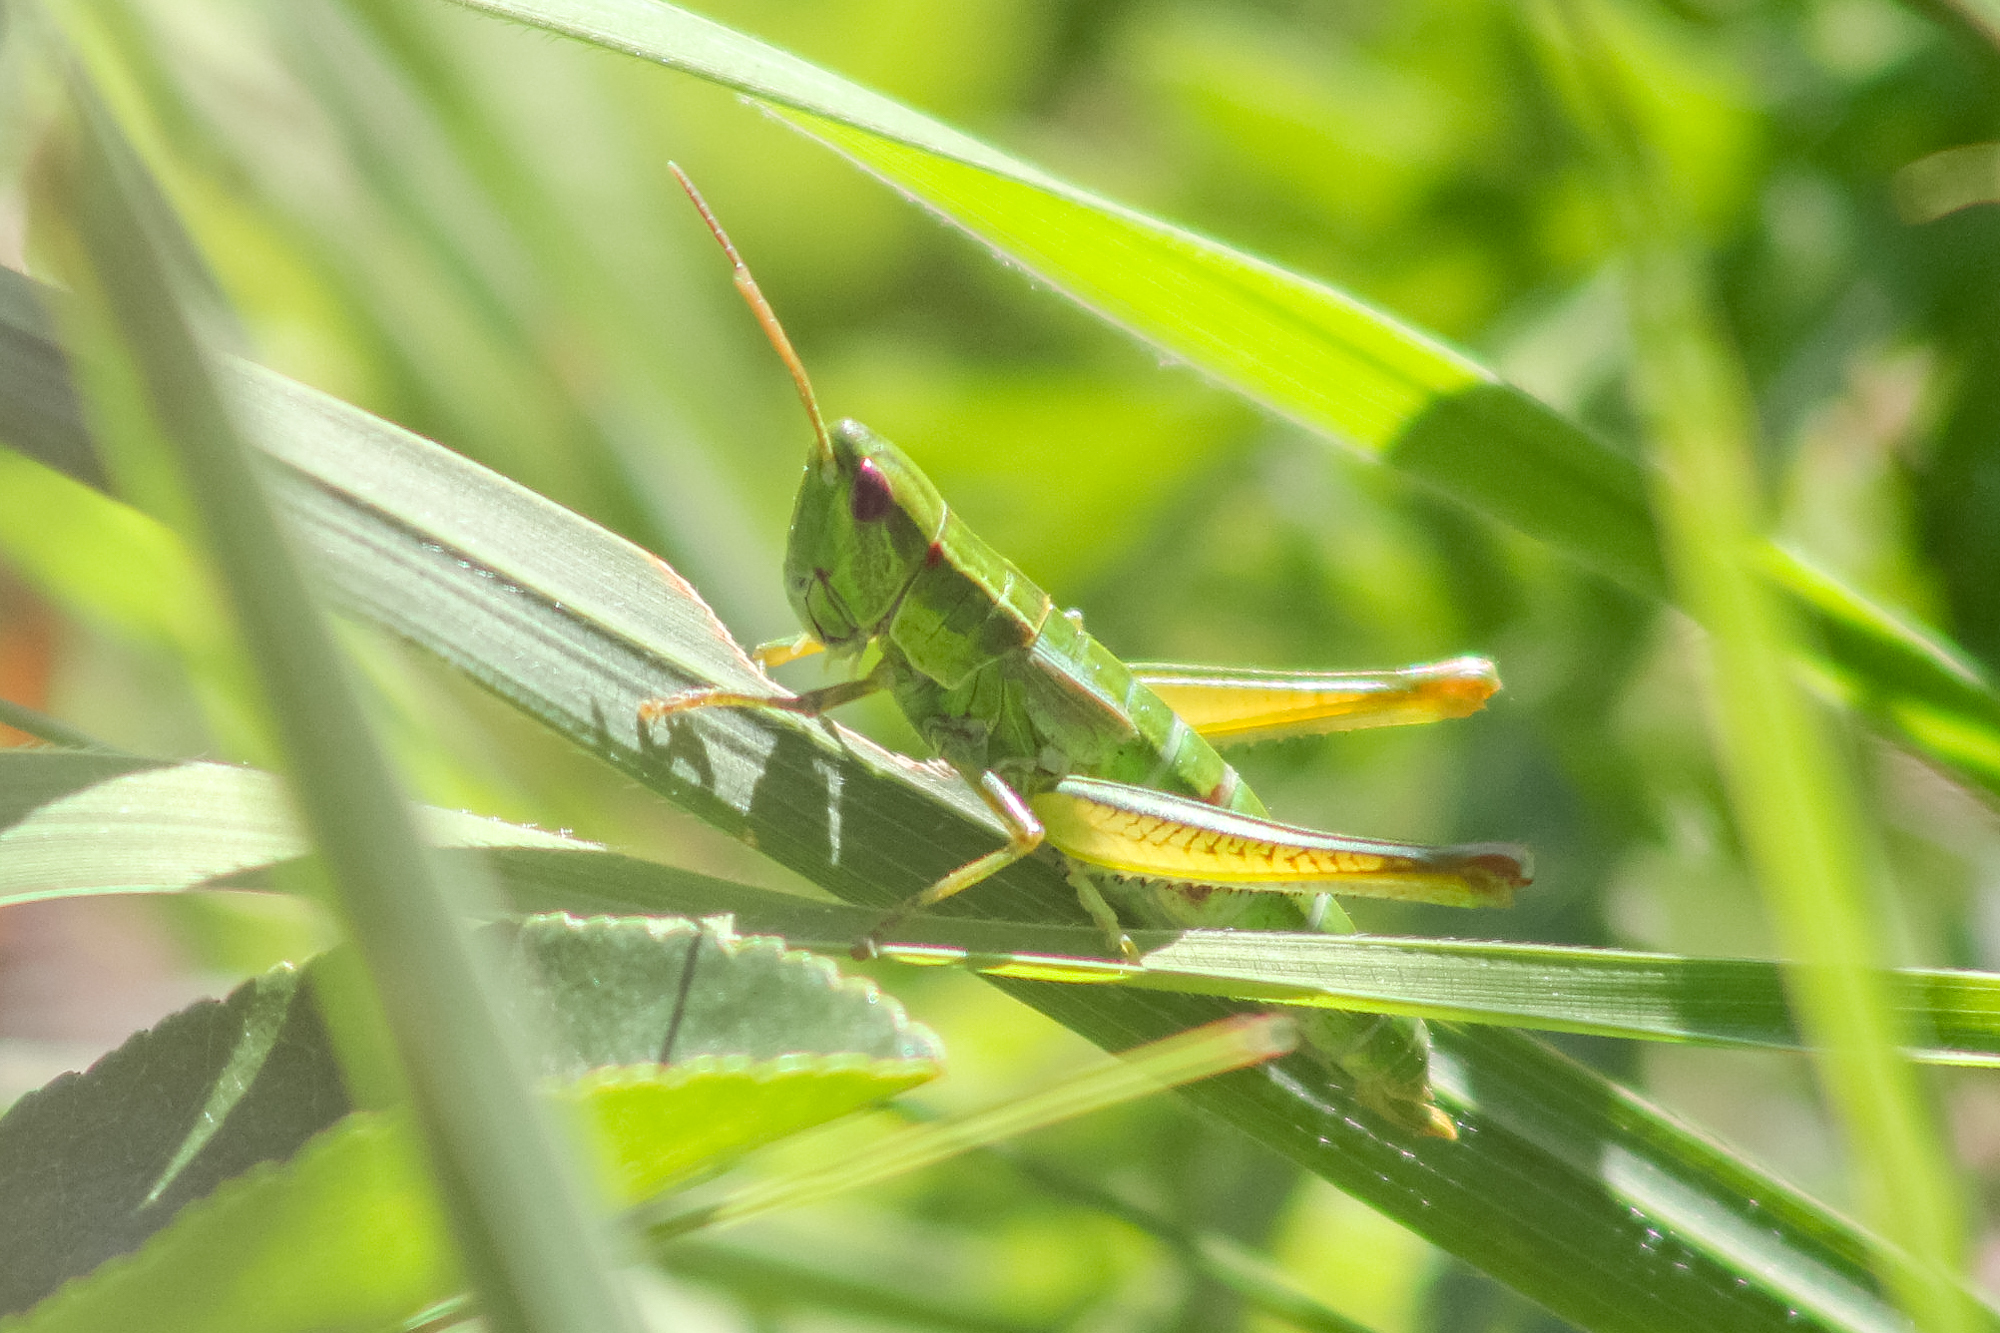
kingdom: Animalia
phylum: Arthropoda
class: Insecta
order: Orthoptera
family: Acrididae
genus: Euthystira
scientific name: Euthystira brachyptera
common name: Small gold grasshopper
